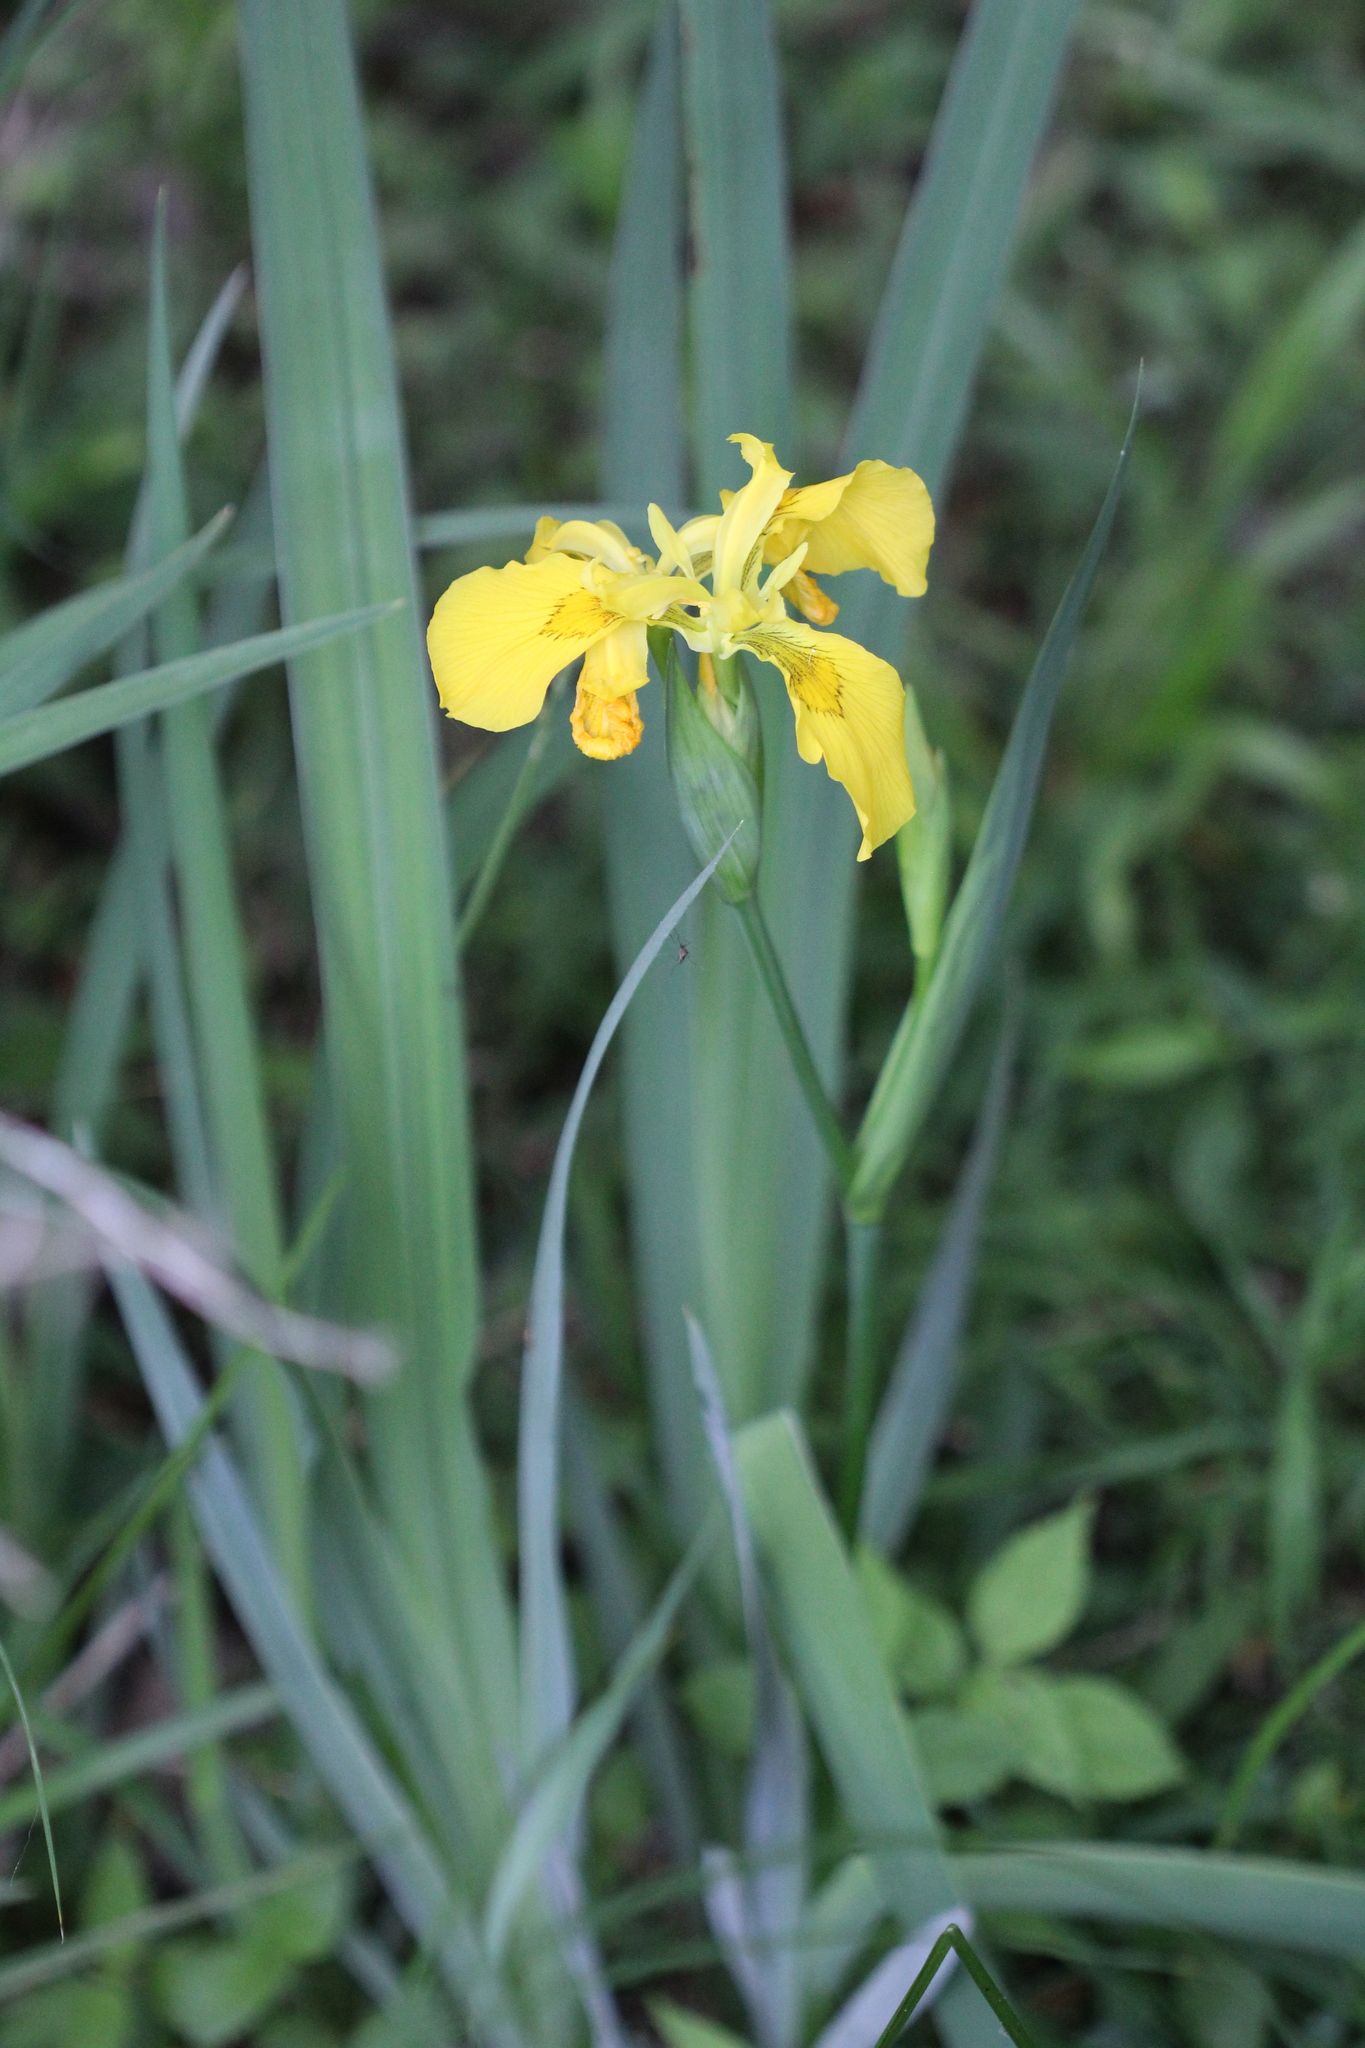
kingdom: Plantae
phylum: Tracheophyta
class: Liliopsida
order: Asparagales
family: Iridaceae
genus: Iris
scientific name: Iris pseudacorus
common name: Yellow flag
